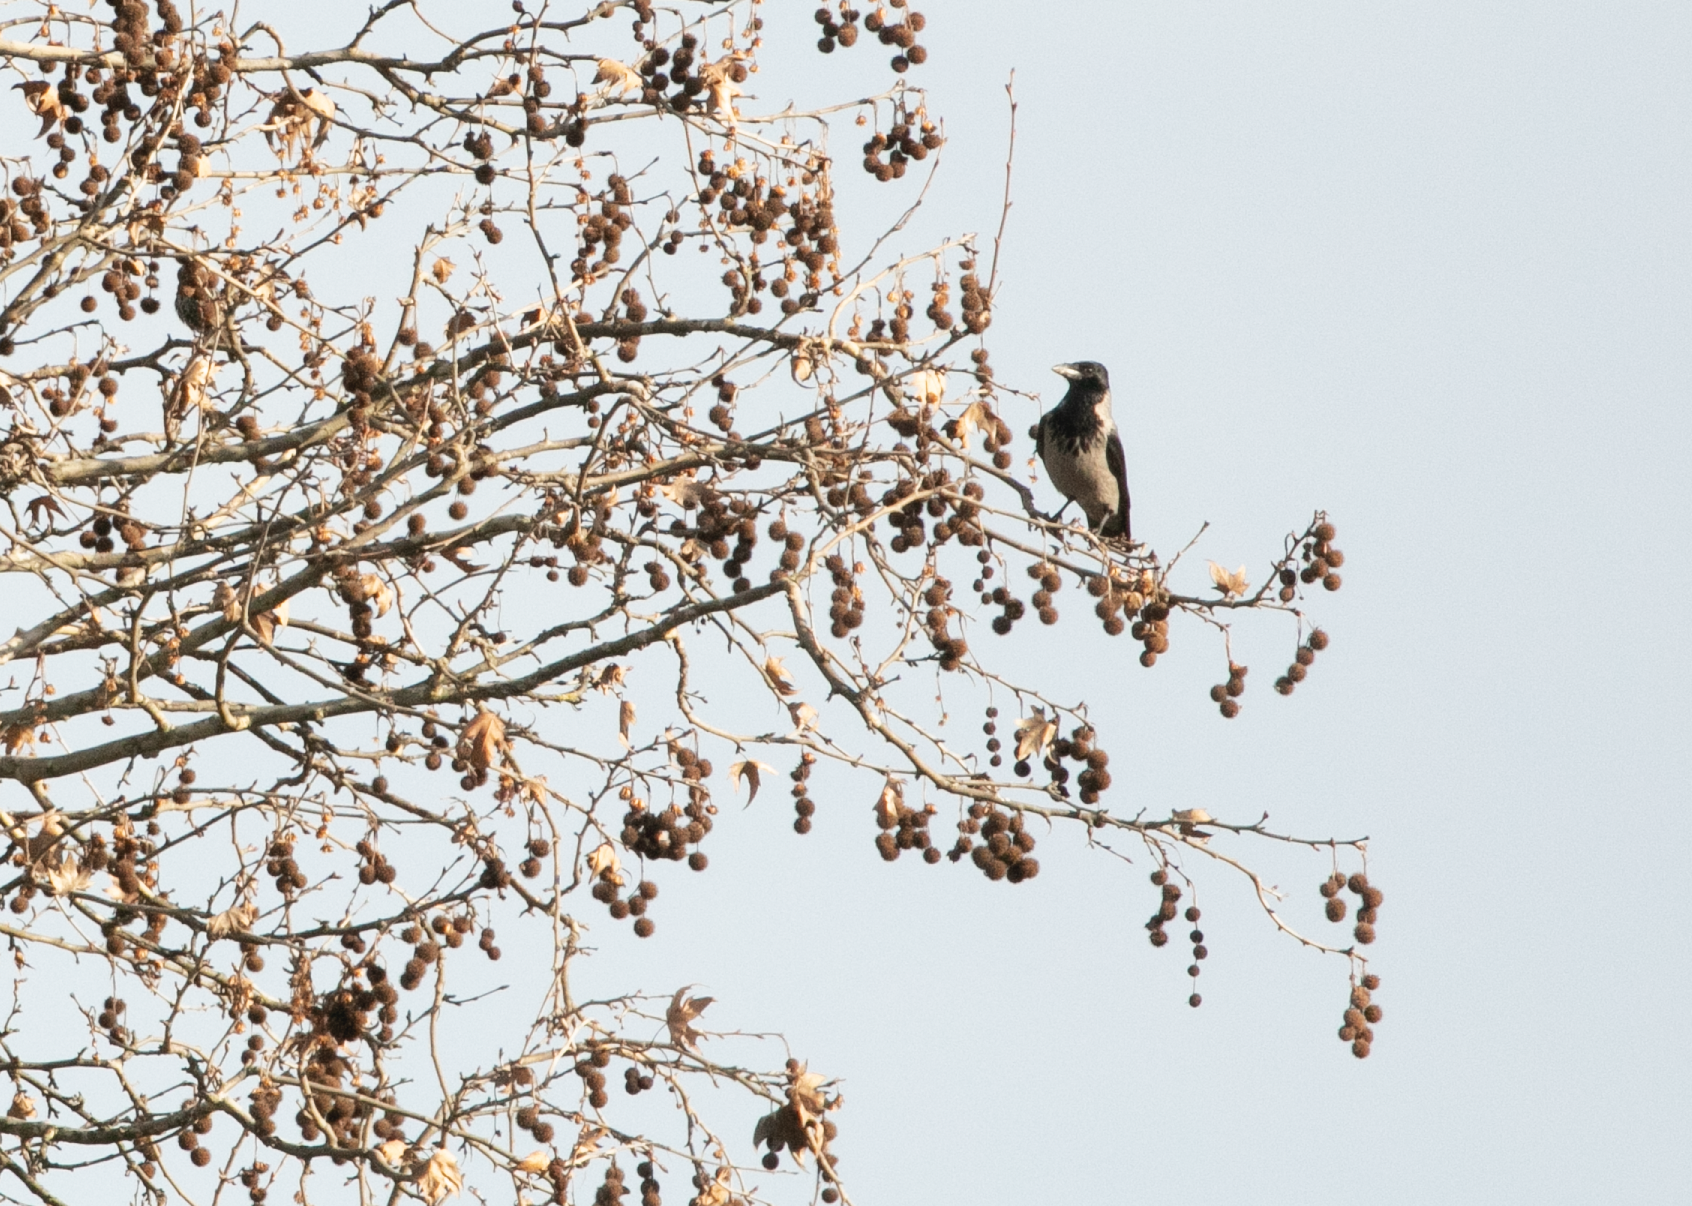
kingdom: Animalia
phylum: Chordata
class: Aves
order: Passeriformes
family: Corvidae
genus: Corvus
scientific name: Corvus cornix
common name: Hooded crow
